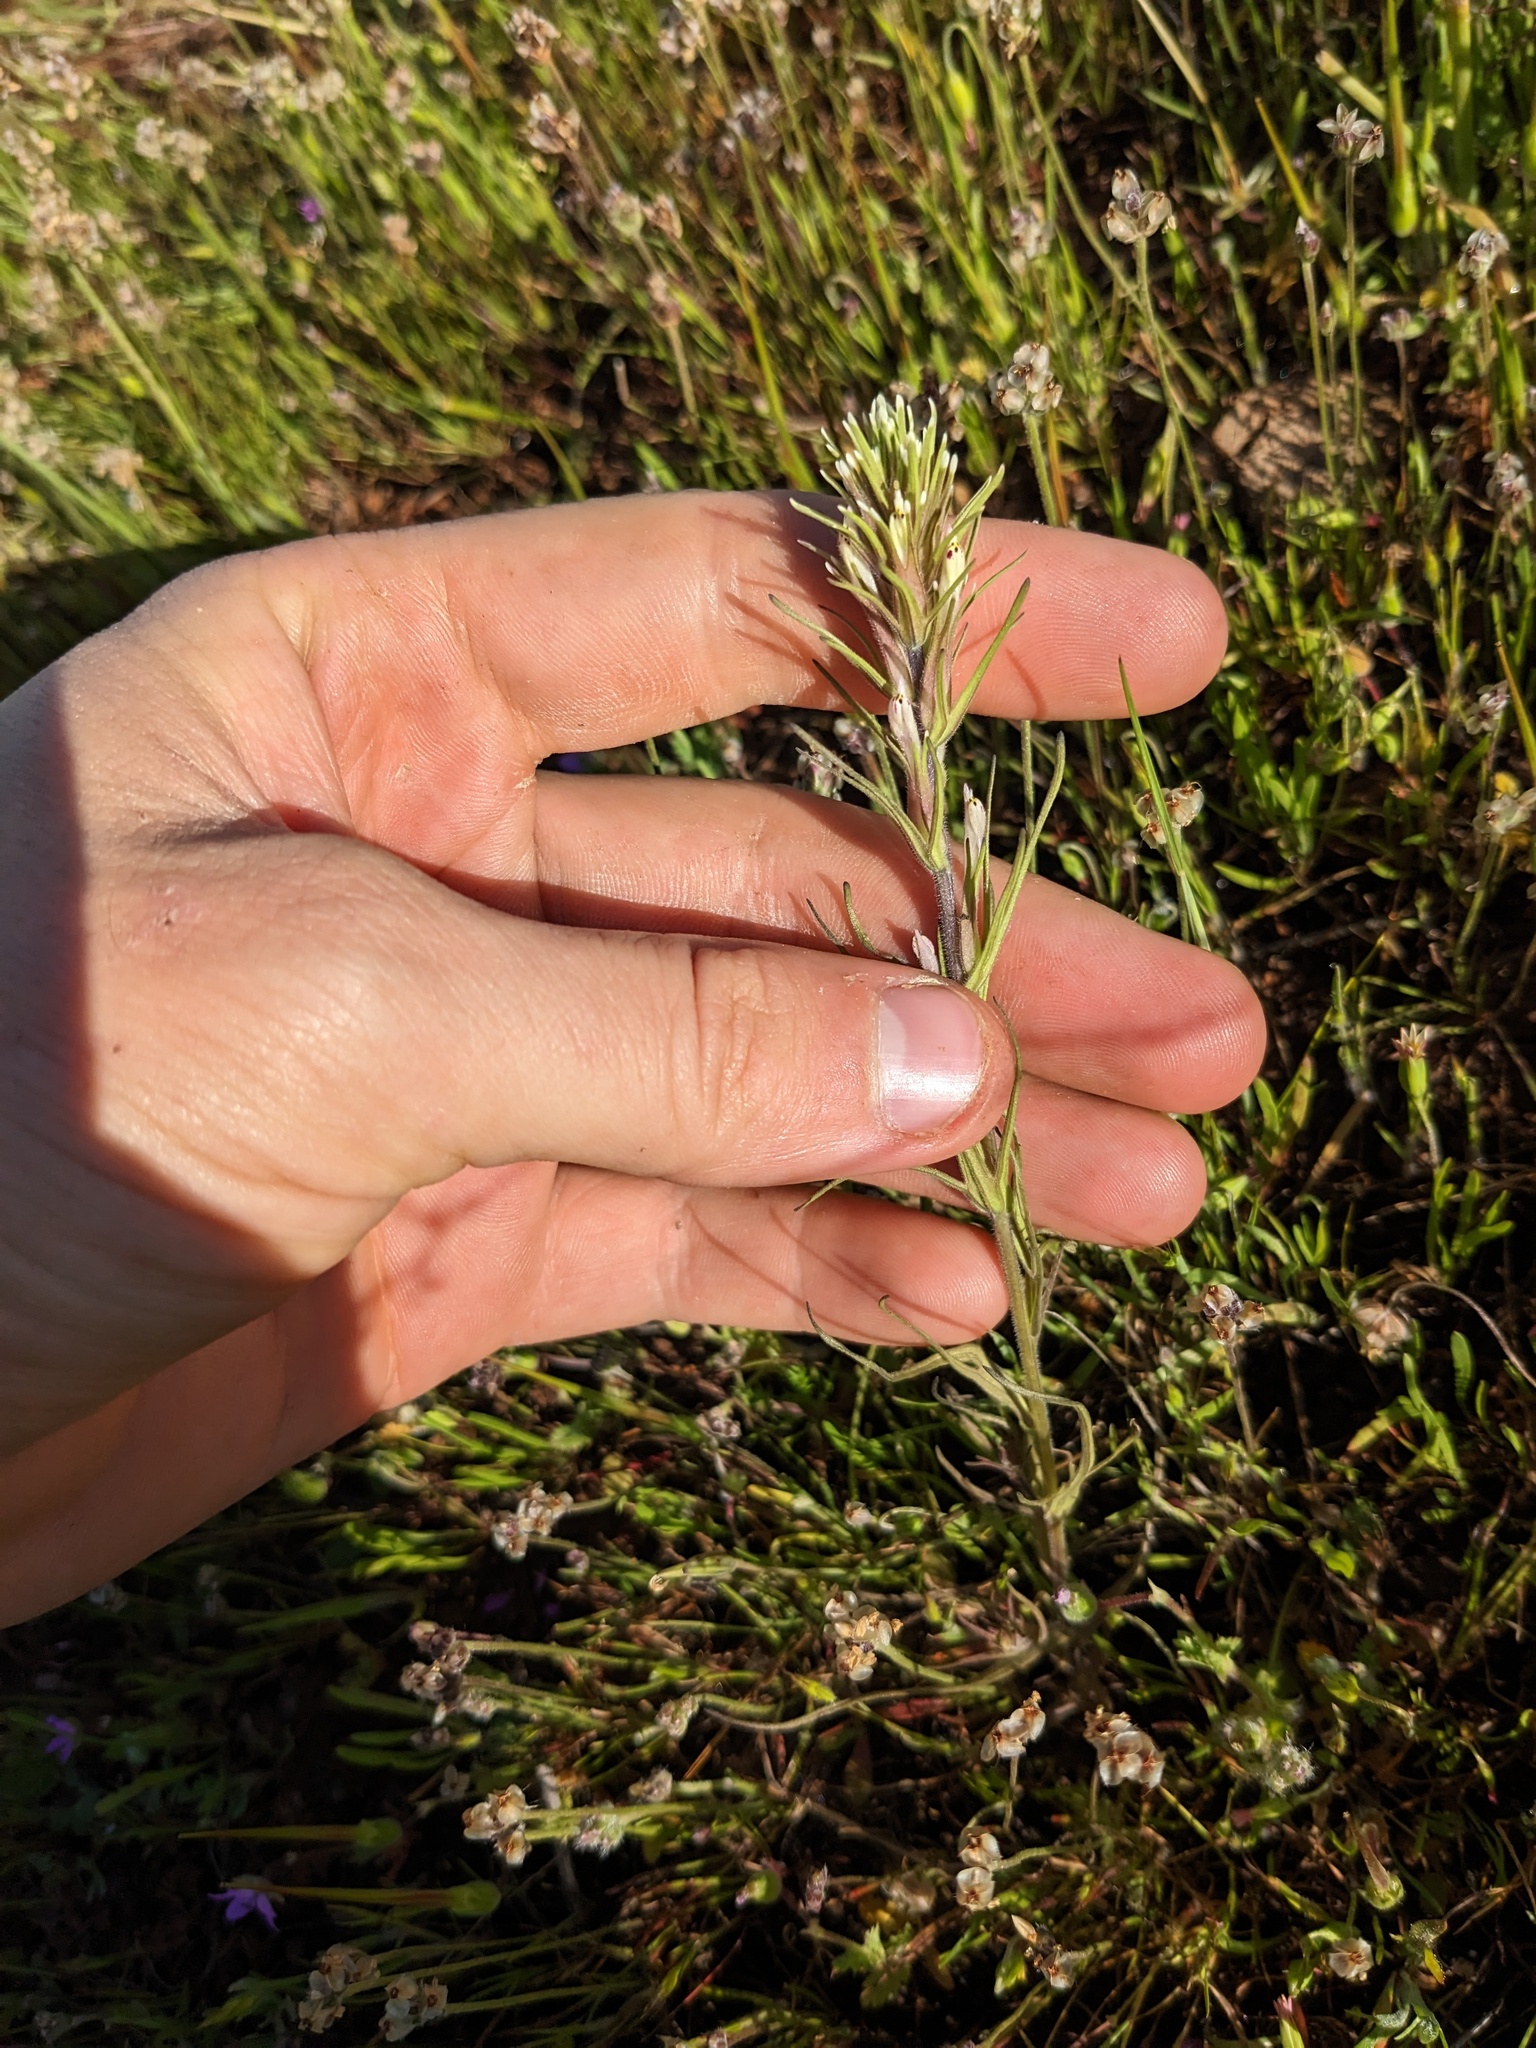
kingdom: Plantae
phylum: Tracheophyta
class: Magnoliopsida
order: Lamiales
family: Orobanchaceae
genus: Castilleja
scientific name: Castilleja attenuata
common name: Valley tassels
